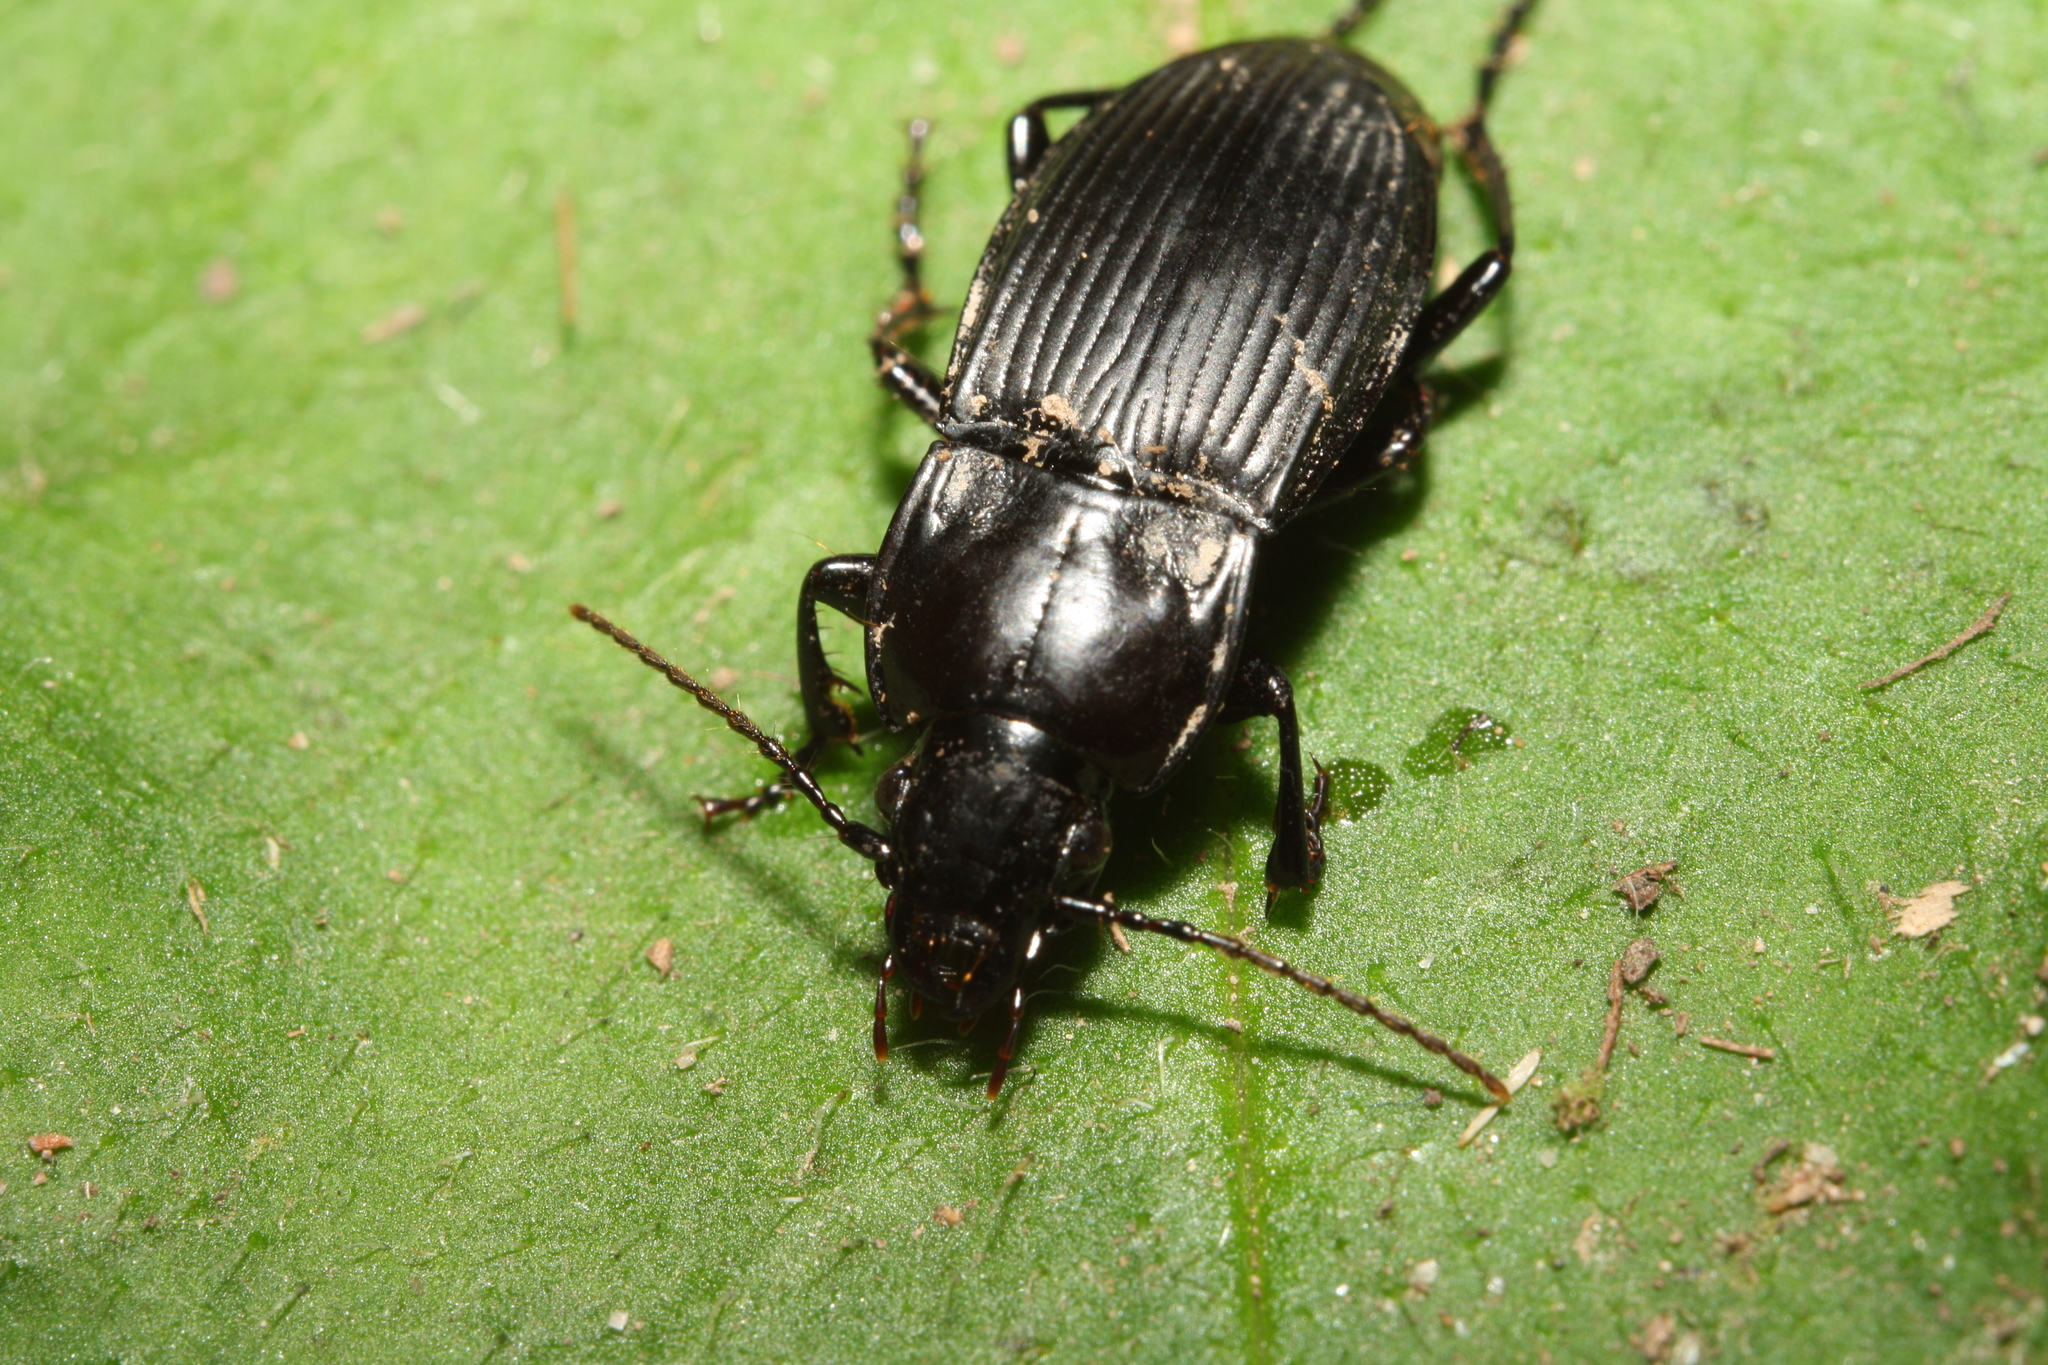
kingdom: Animalia
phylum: Arthropoda
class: Insecta
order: Coleoptera
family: Carabidae
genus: Abax
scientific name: Abax carinatus
